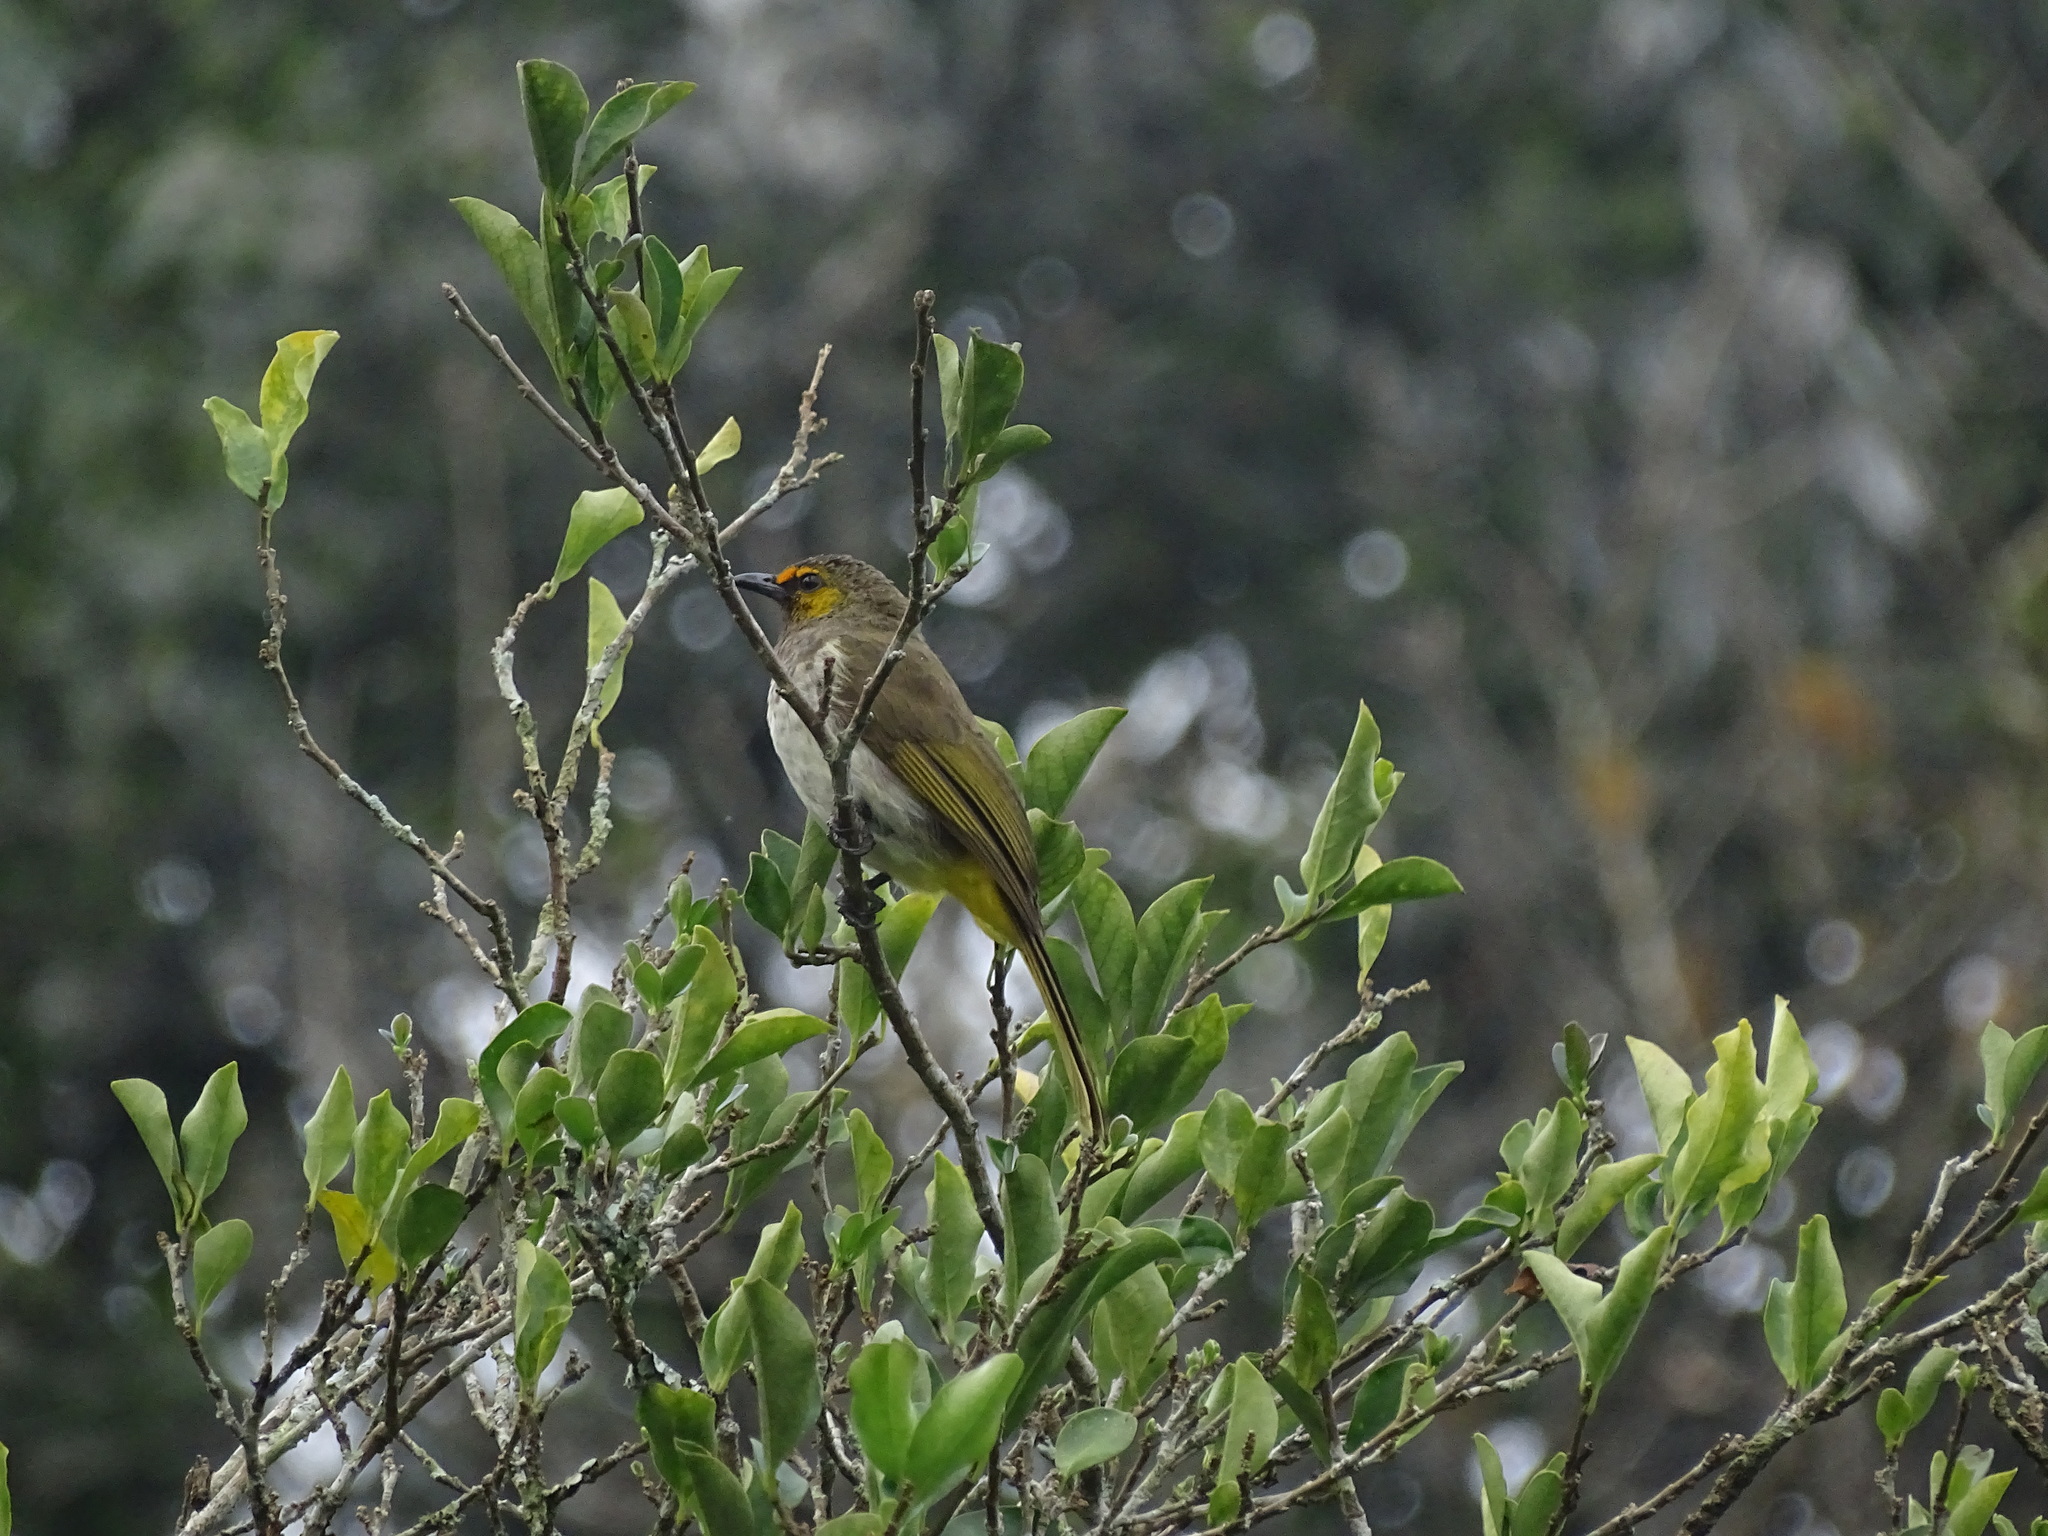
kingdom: Animalia
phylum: Chordata
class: Aves
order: Passeriformes
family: Pycnonotidae
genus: Pycnonotus
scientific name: Pycnonotus bimaculatus
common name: Orange-spotted bulbul
